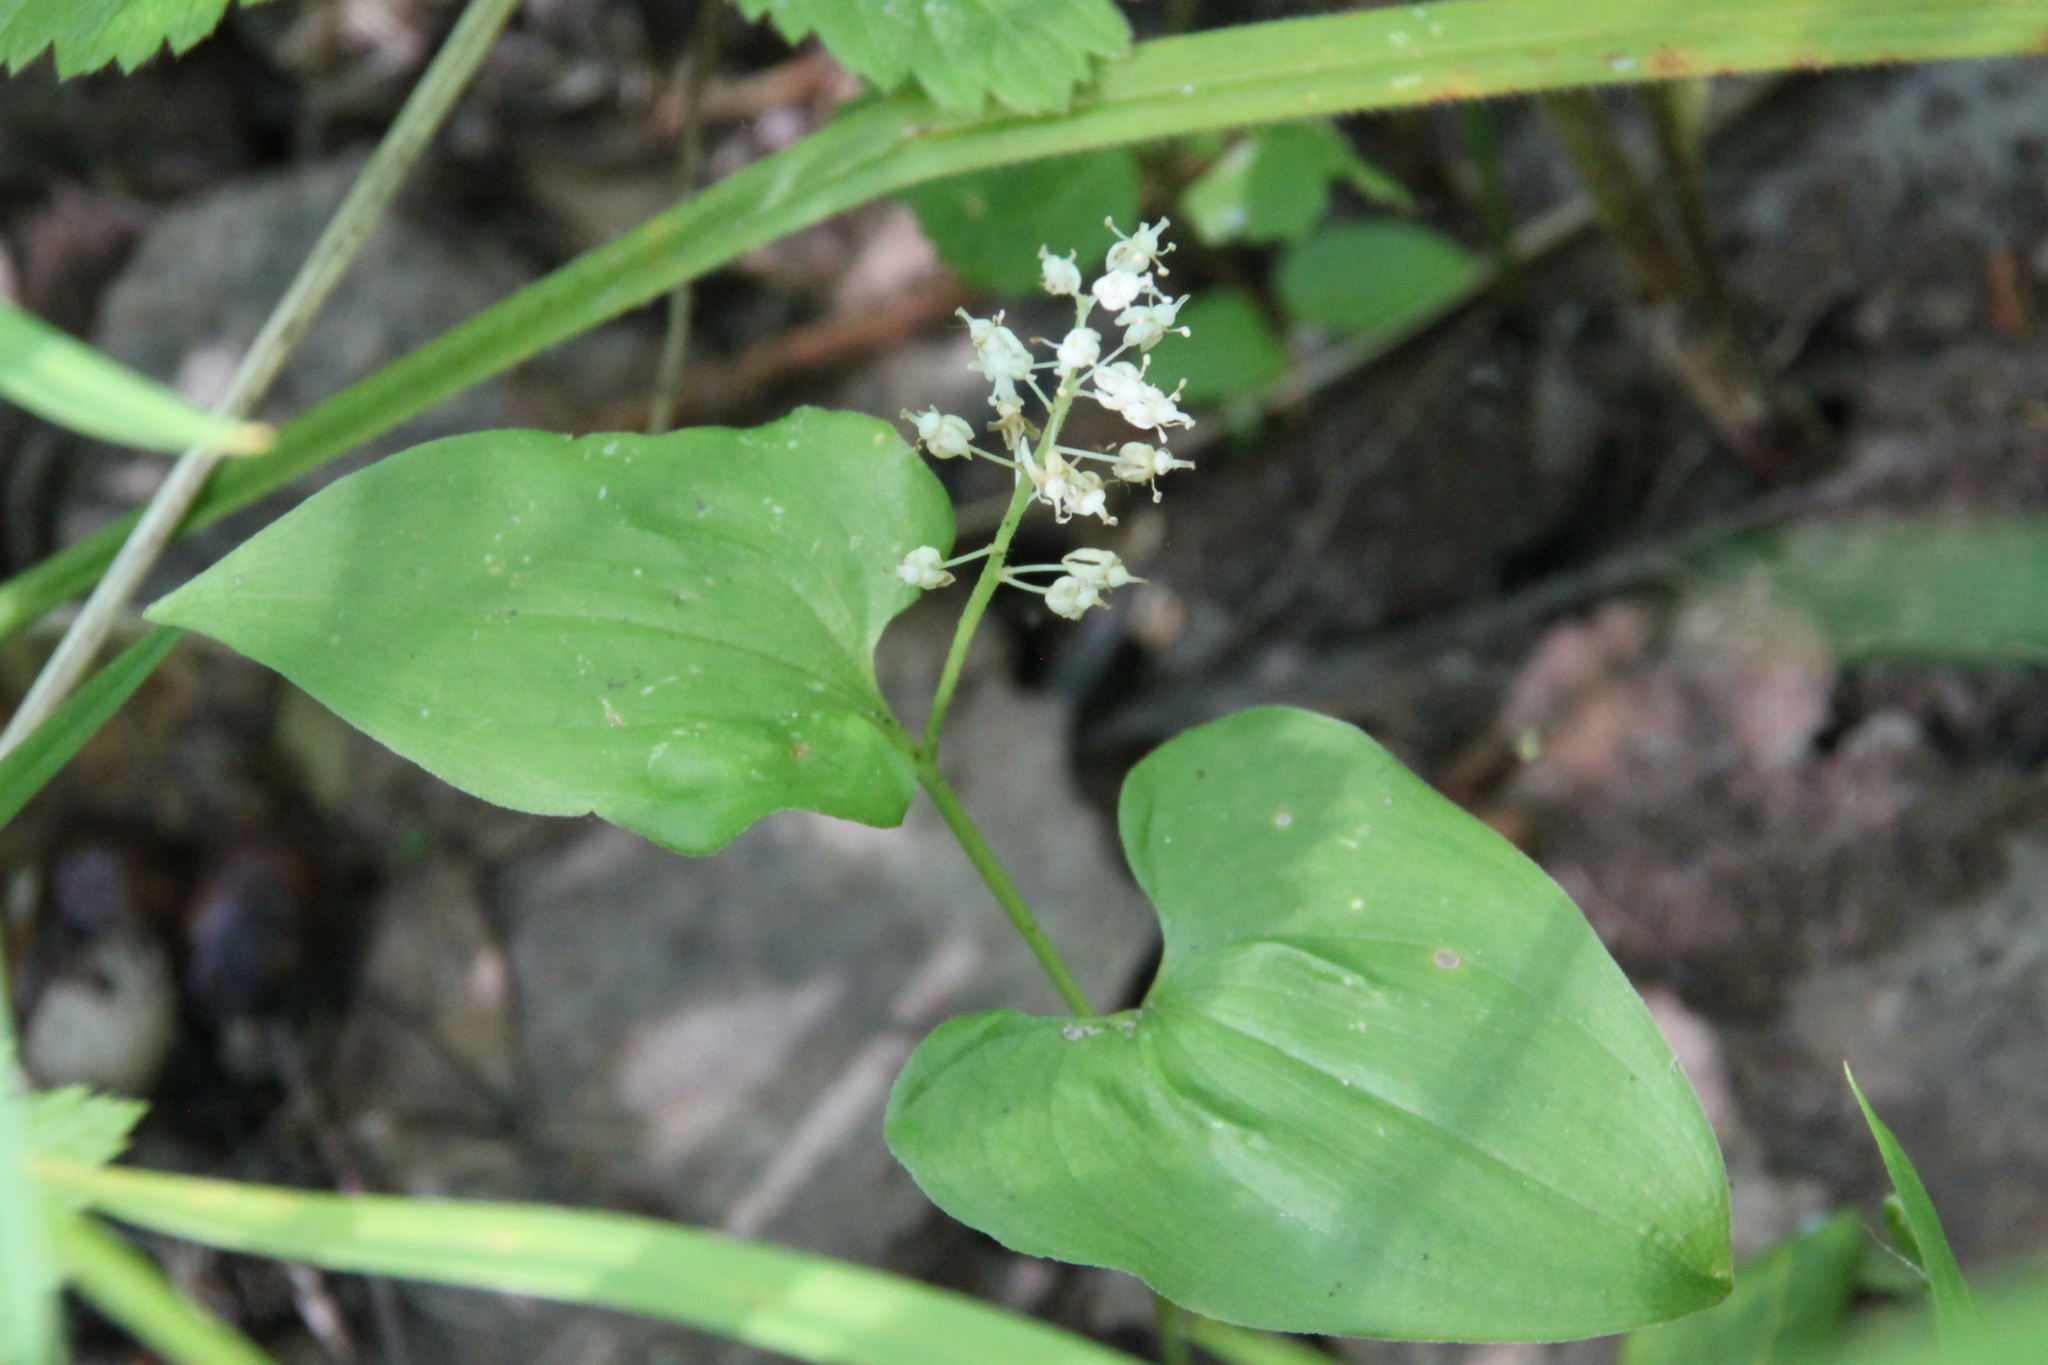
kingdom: Plantae
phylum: Tracheophyta
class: Liliopsida
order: Asparagales
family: Asparagaceae
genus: Maianthemum
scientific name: Maianthemum bifolium
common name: May lily
